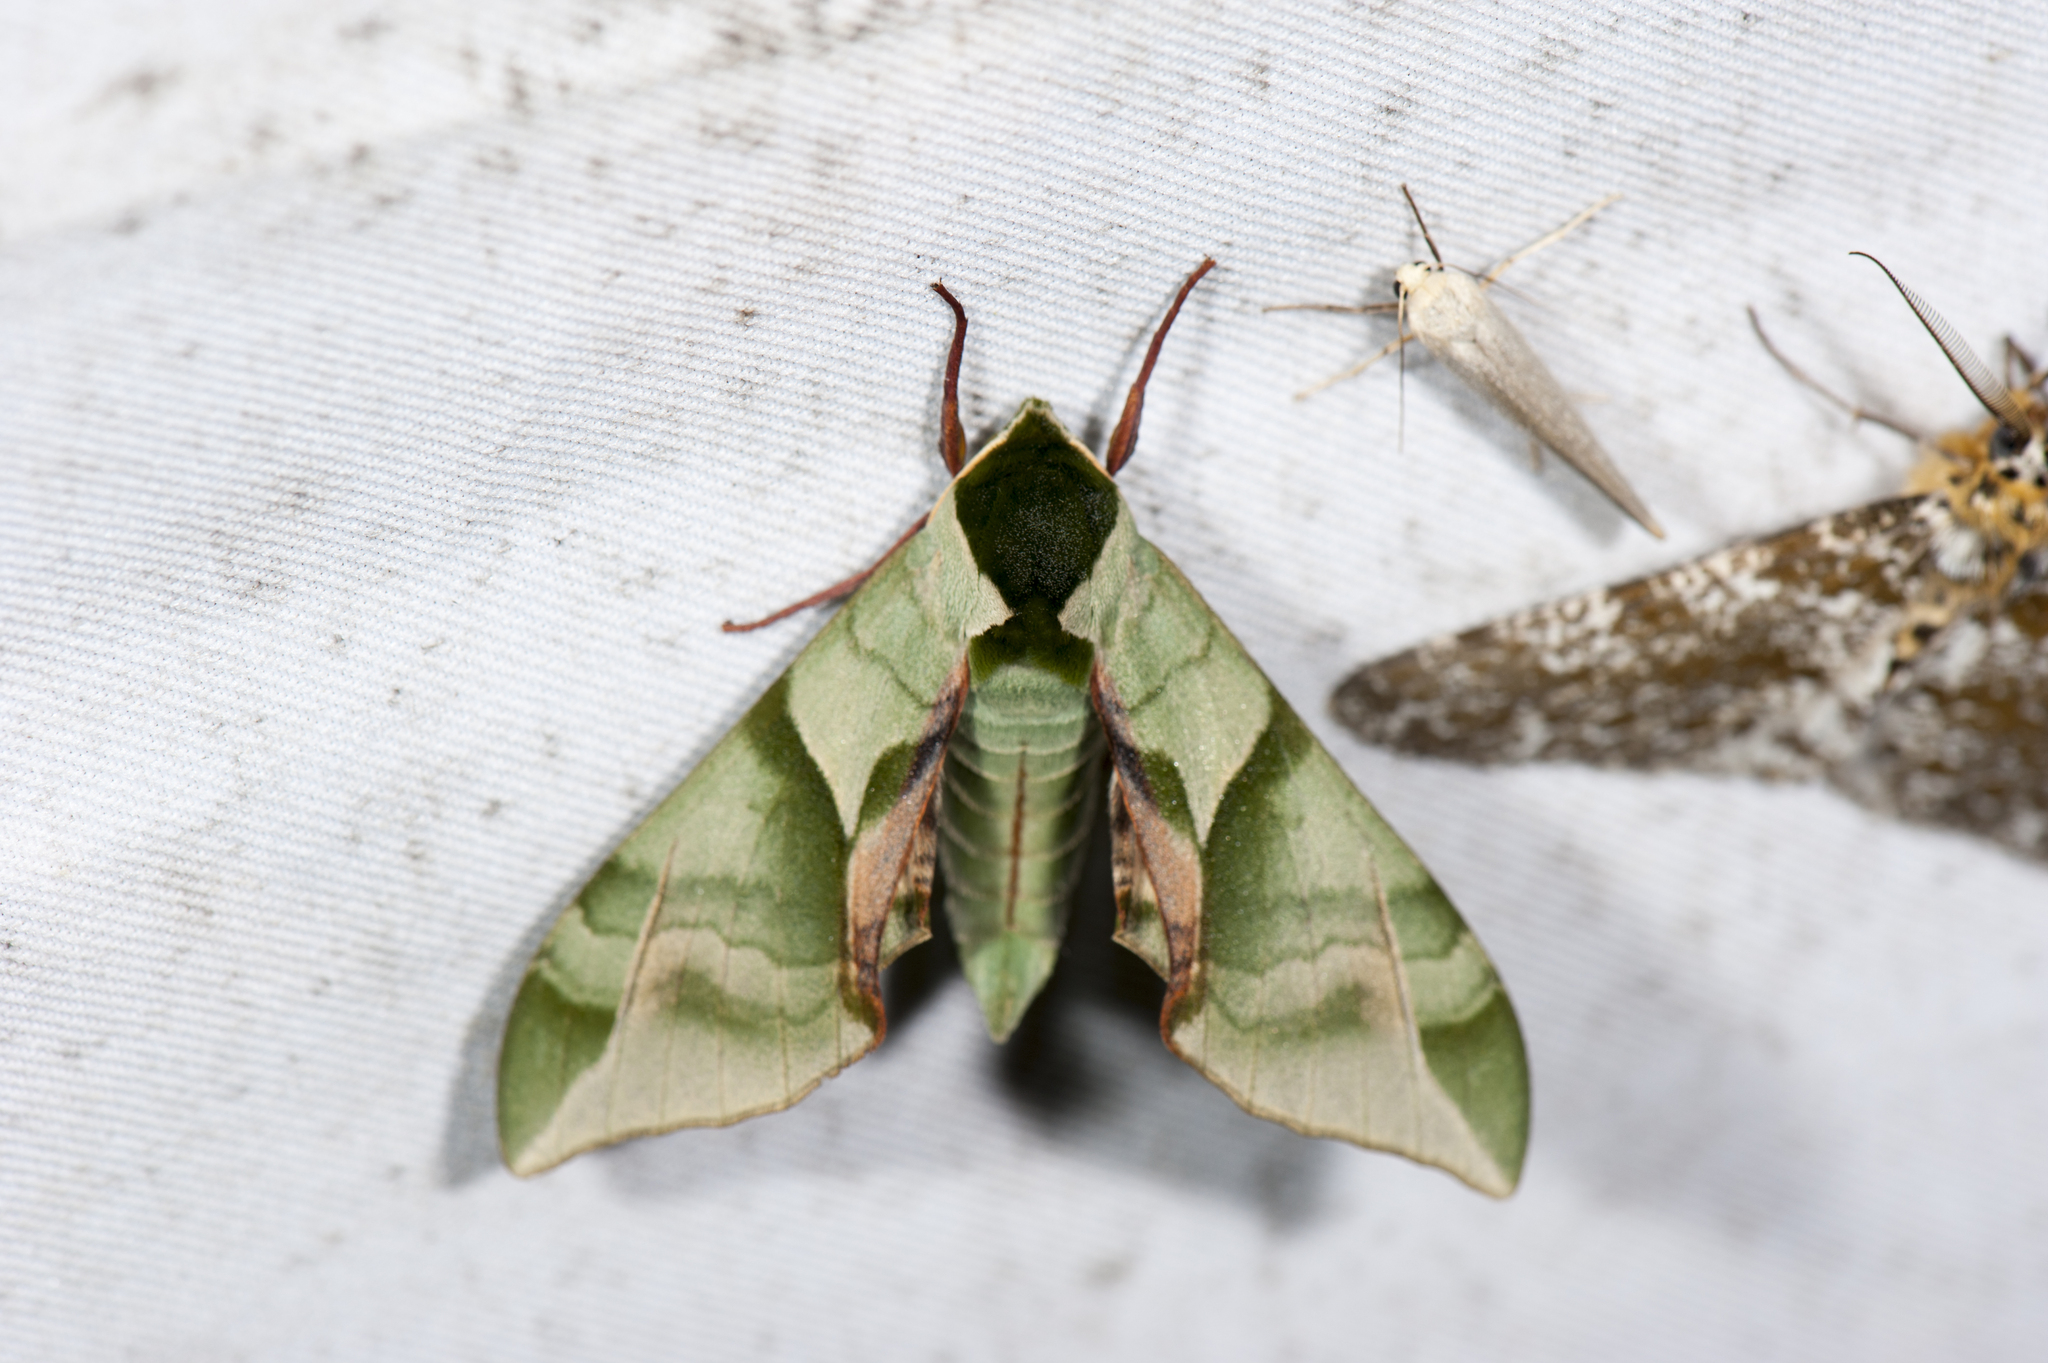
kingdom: Animalia
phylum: Arthropoda
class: Insecta
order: Lepidoptera
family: Sphingidae
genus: Callambulyx
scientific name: Callambulyx tatarinovii
